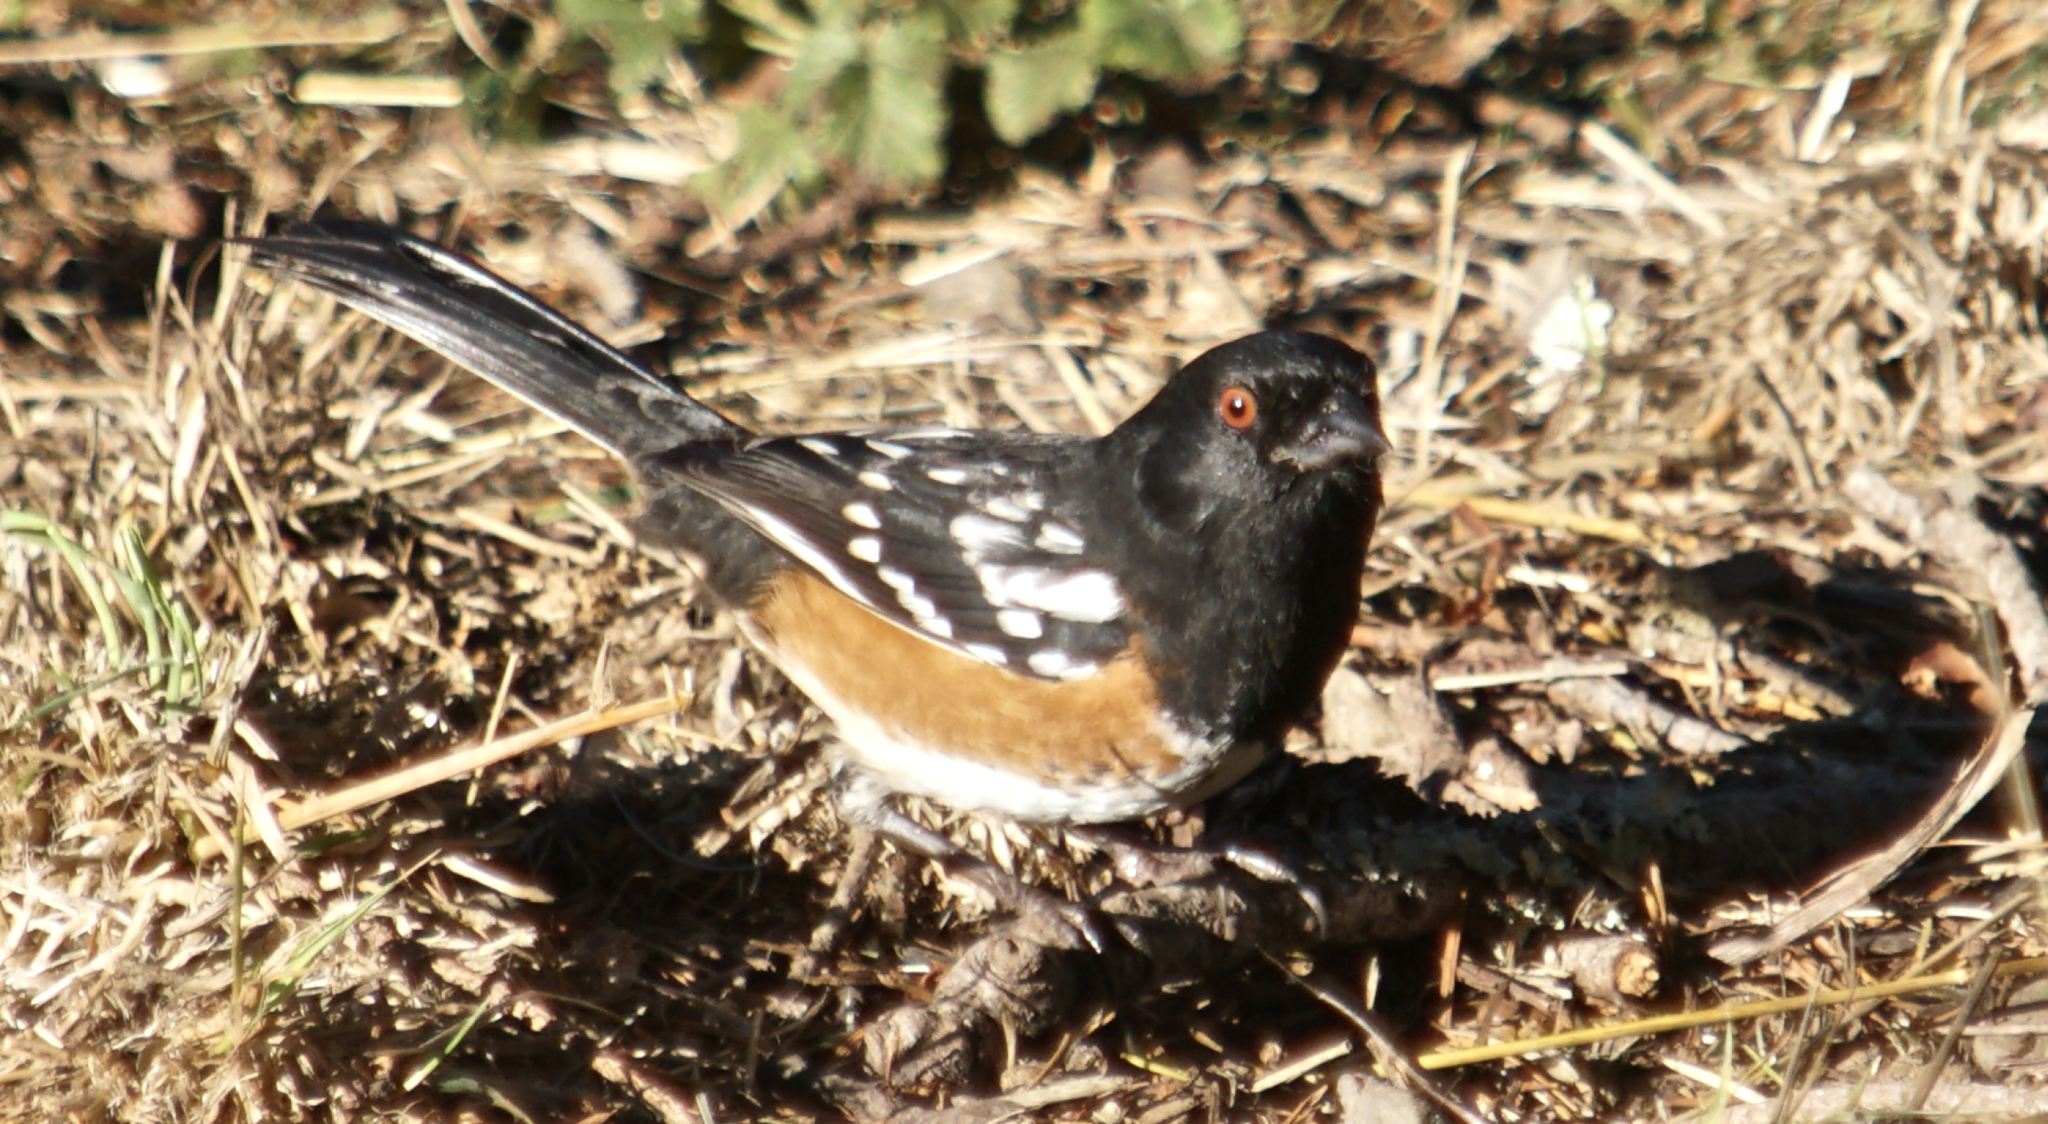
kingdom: Animalia
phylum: Chordata
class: Aves
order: Passeriformes
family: Passerellidae
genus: Pipilo
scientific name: Pipilo maculatus
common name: Spotted towhee
